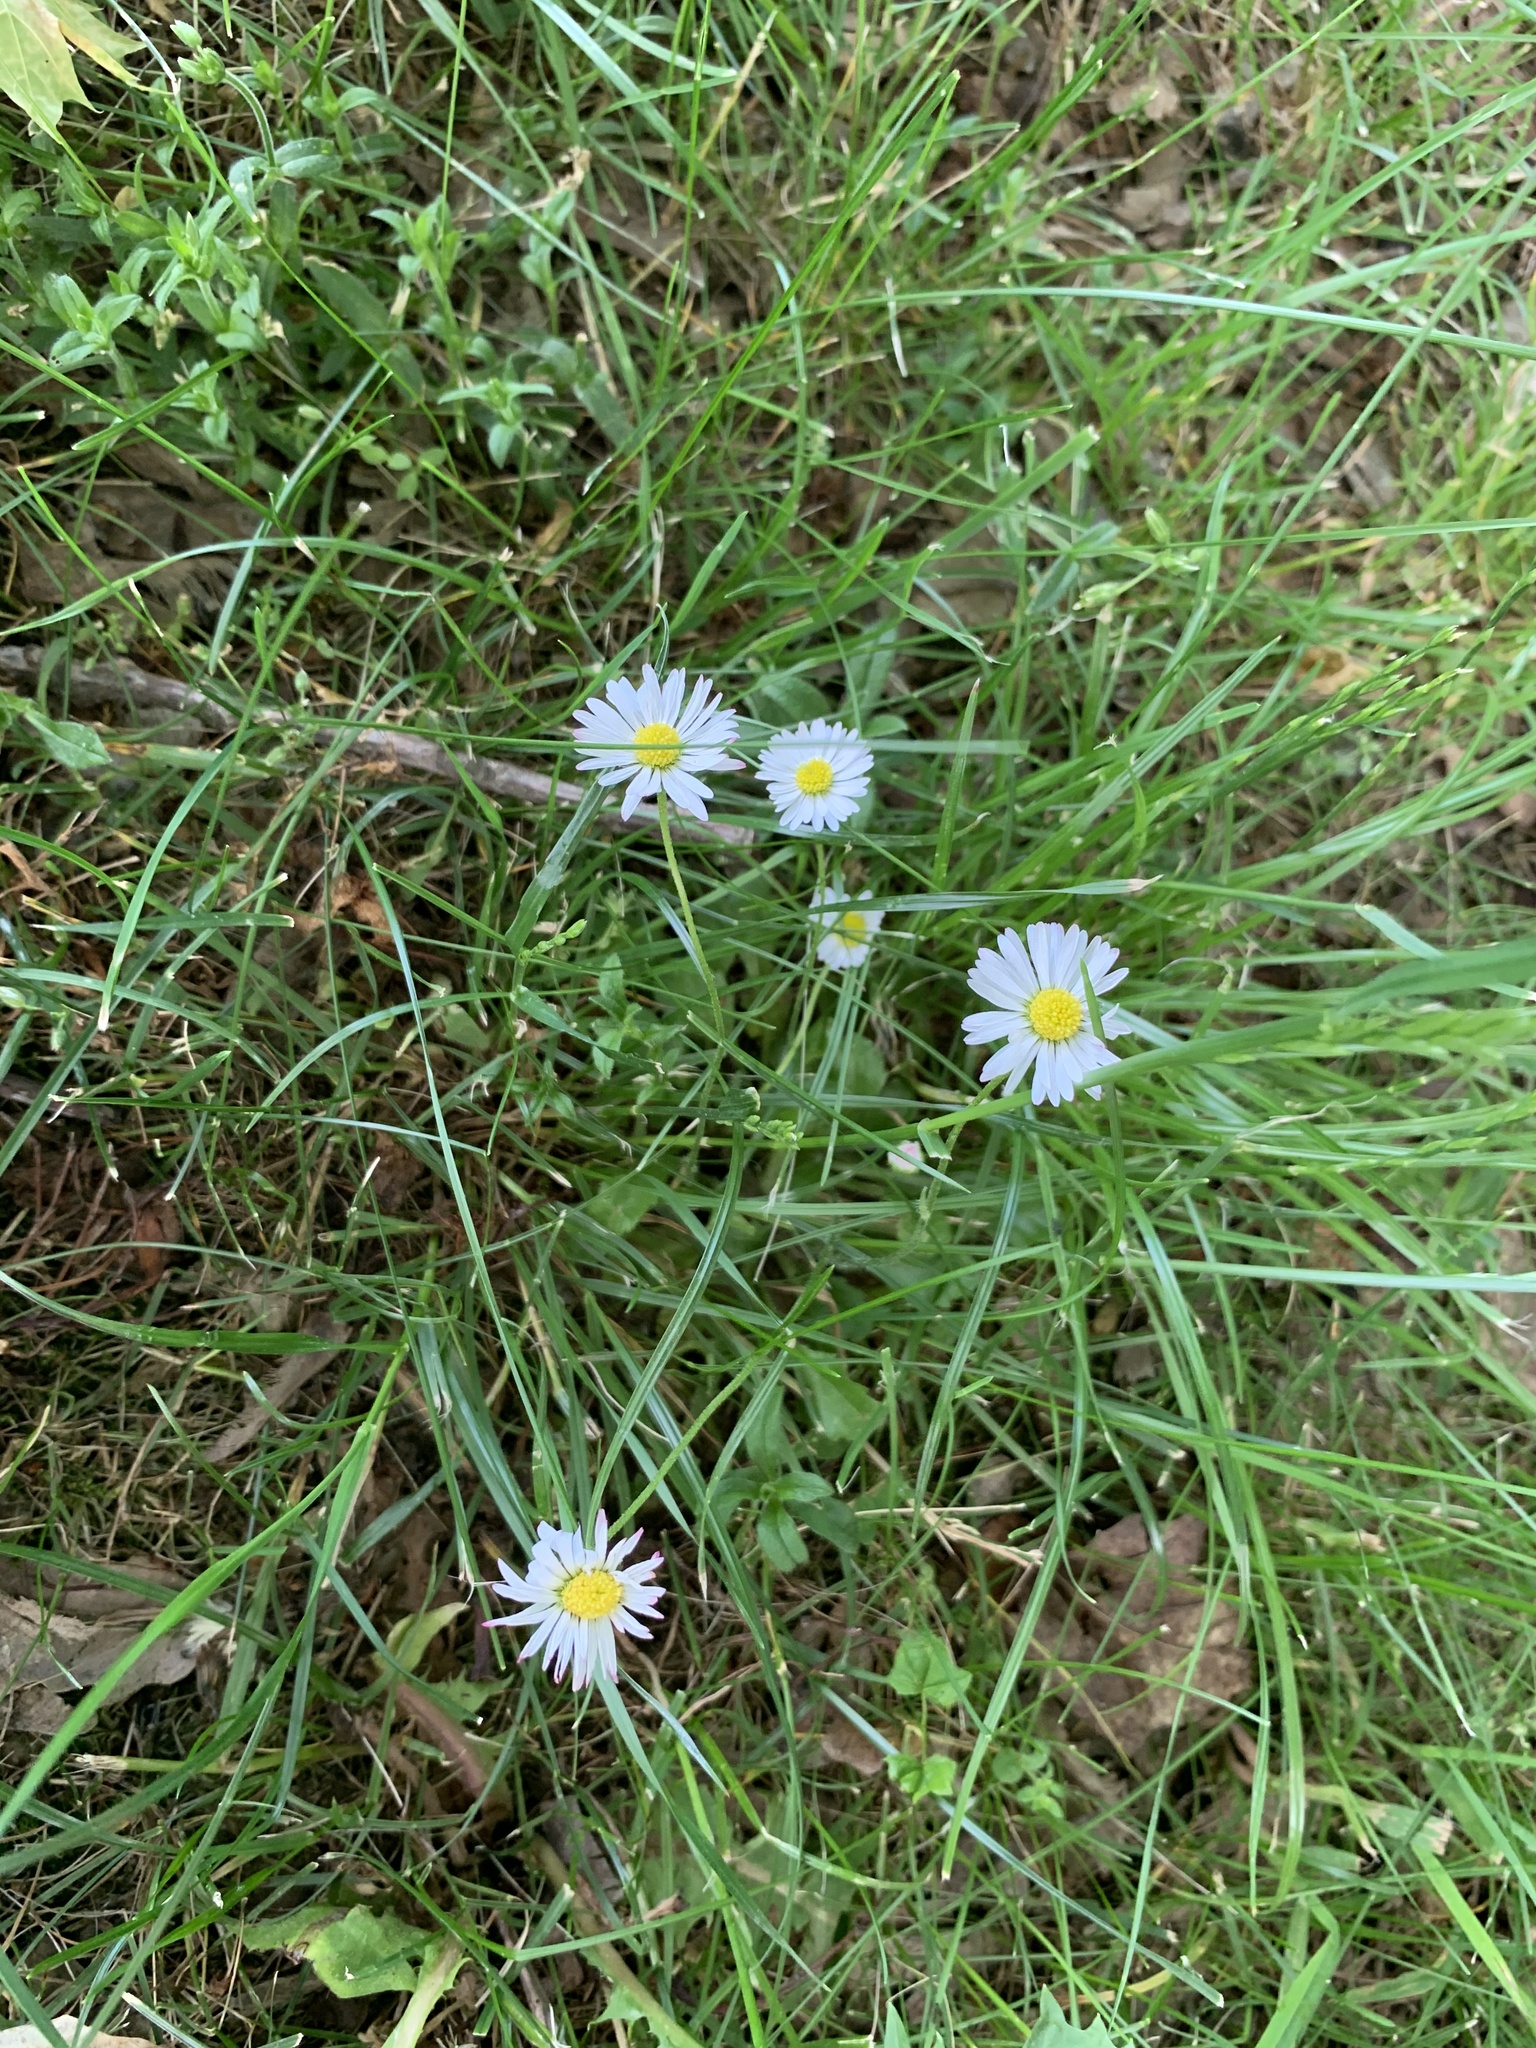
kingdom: Plantae
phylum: Tracheophyta
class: Magnoliopsida
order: Asterales
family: Asteraceae
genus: Bellis
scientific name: Bellis perennis
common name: Lawndaisy
